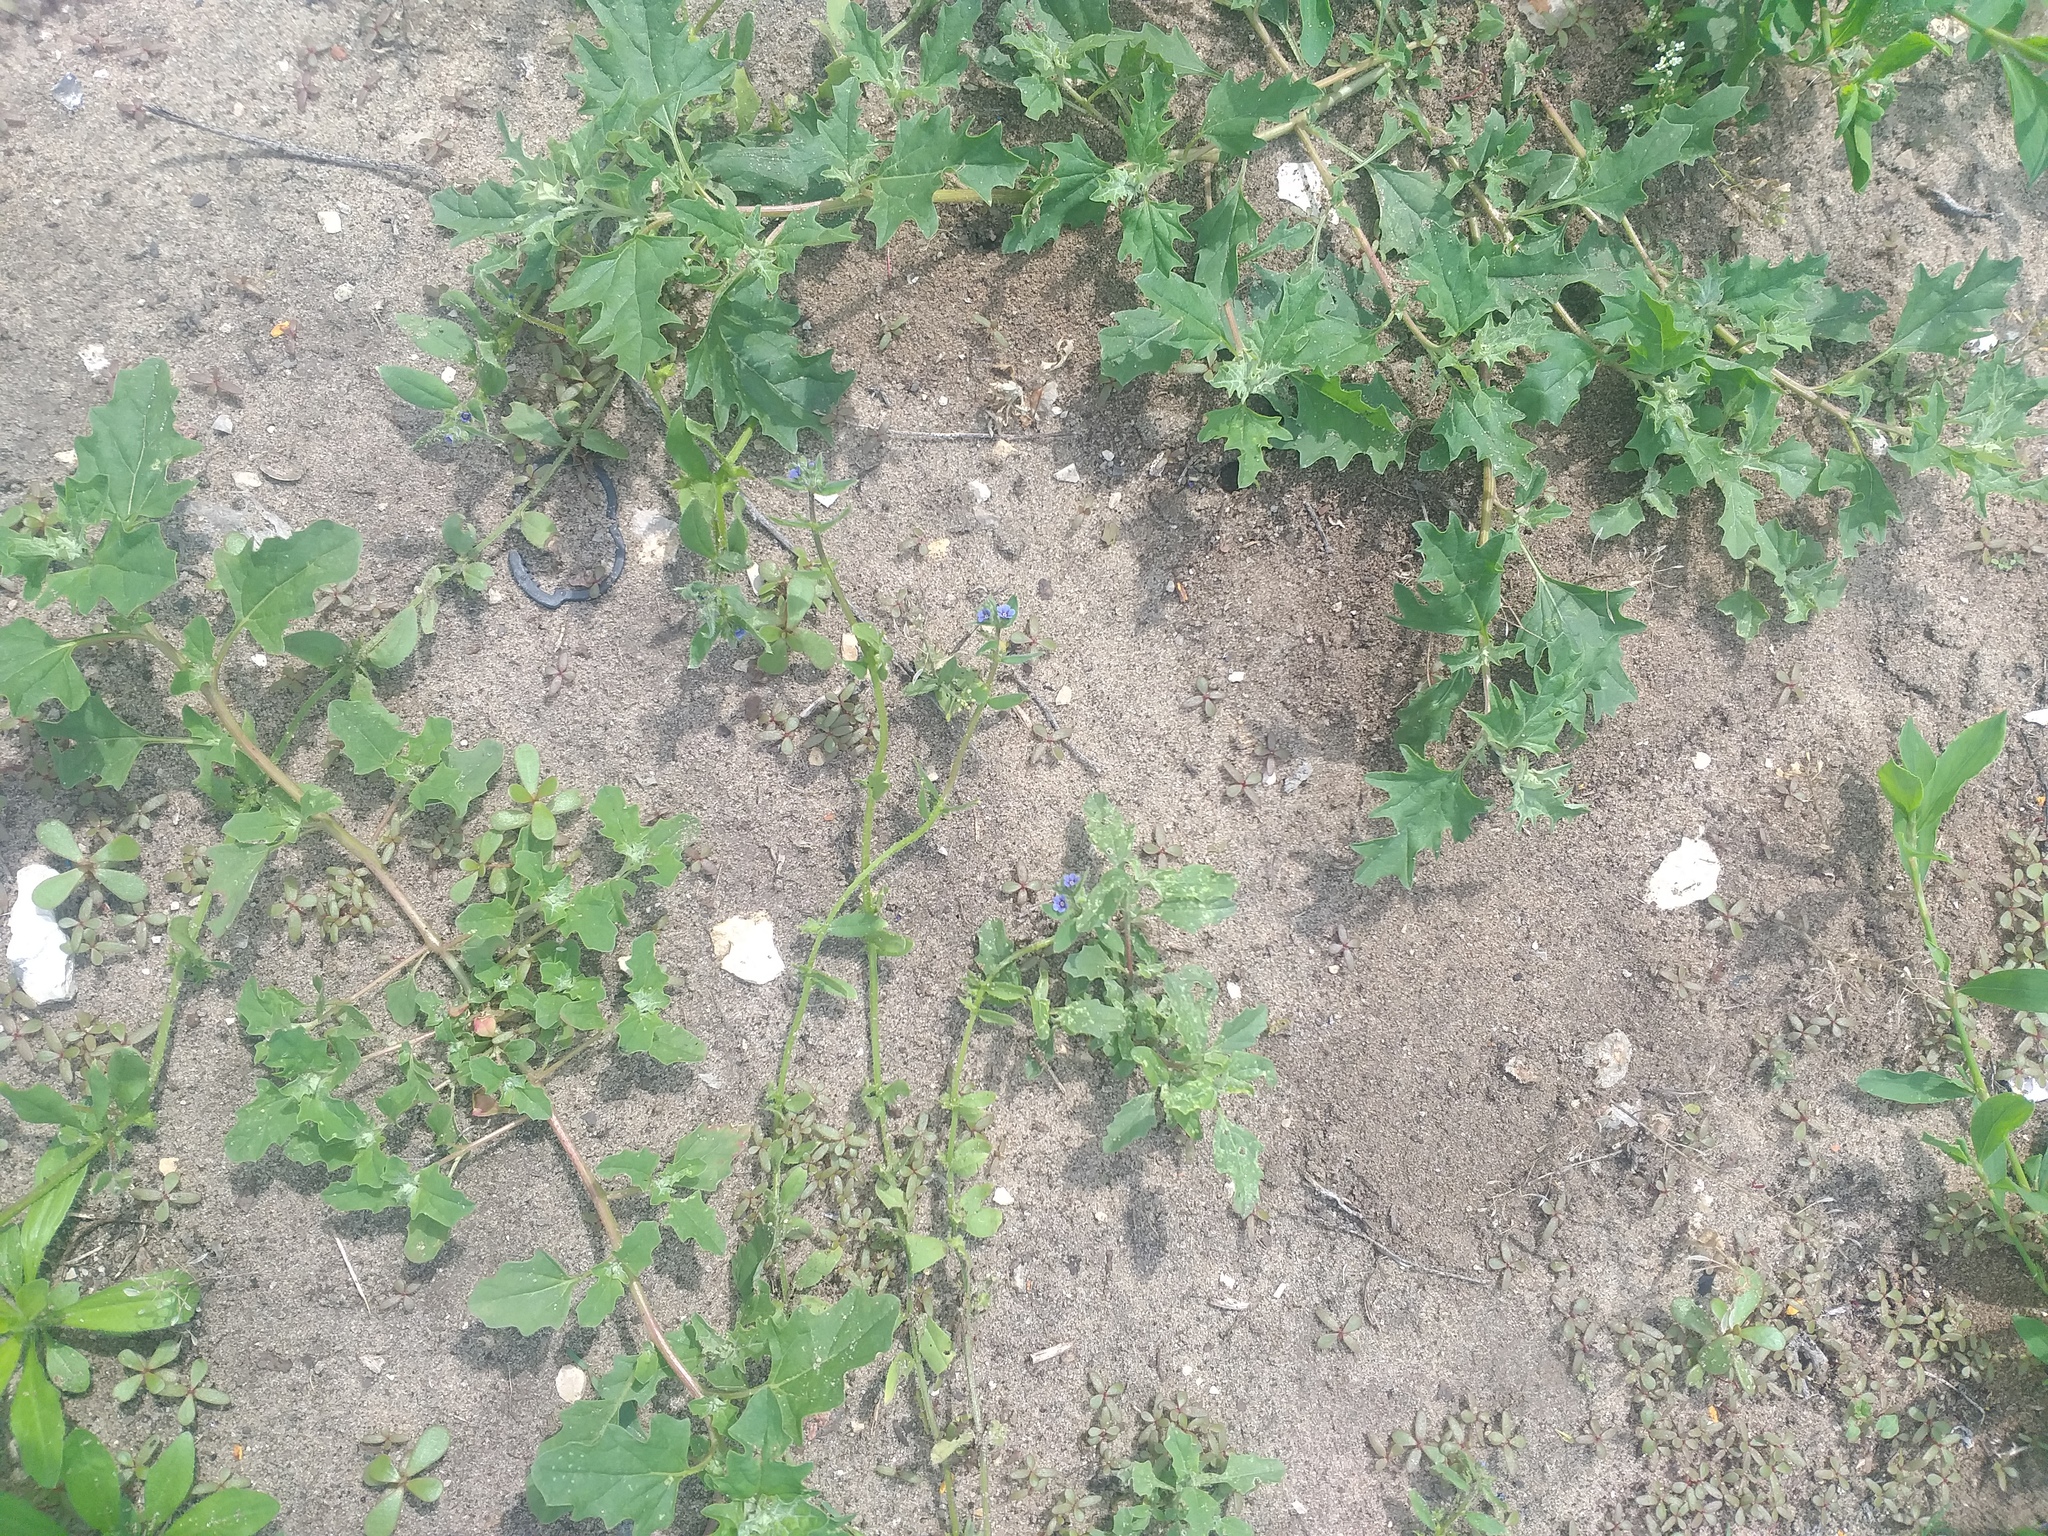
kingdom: Plantae
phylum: Tracheophyta
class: Magnoliopsida
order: Boraginales
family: Boraginaceae
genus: Asperugo
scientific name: Asperugo procumbens
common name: Madwort
